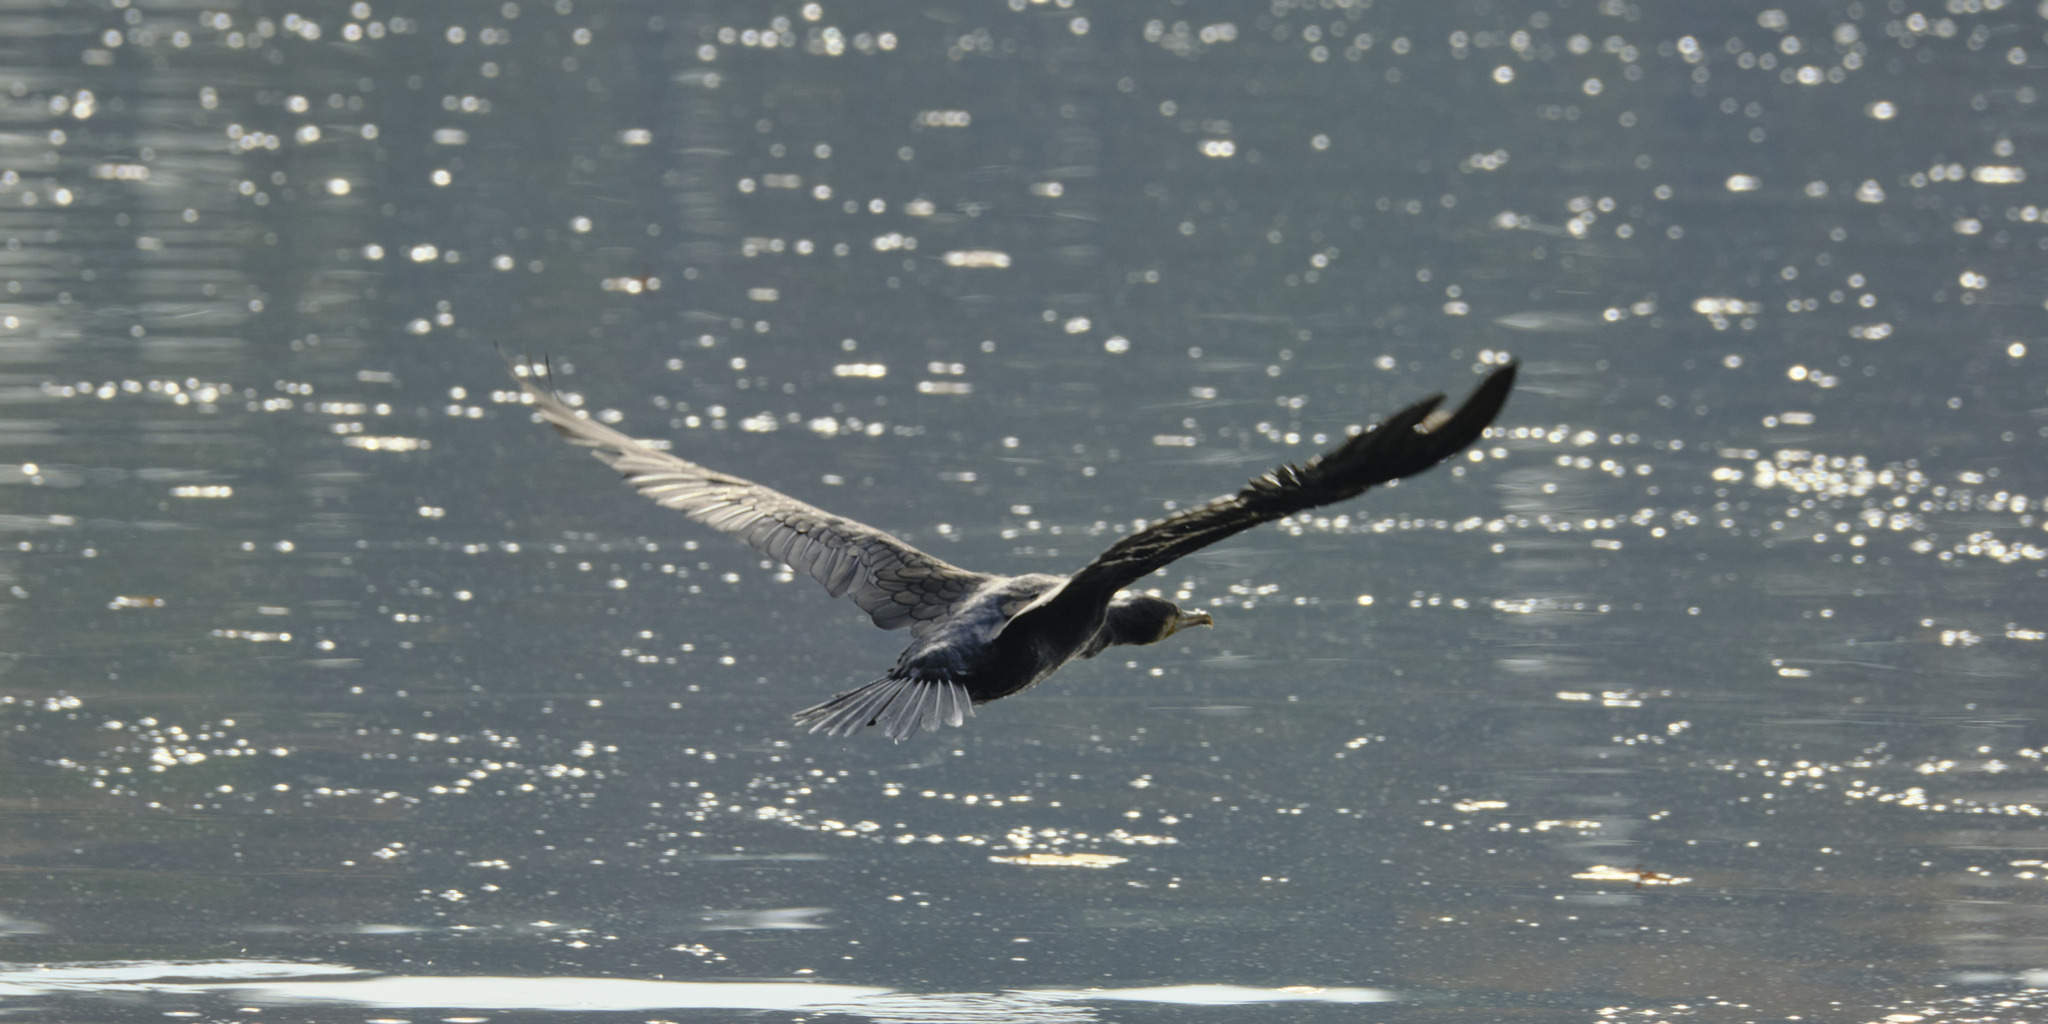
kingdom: Animalia
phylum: Chordata
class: Aves
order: Suliformes
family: Phalacrocoracidae
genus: Phalacrocorax
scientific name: Phalacrocorax carbo
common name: Great cormorant
